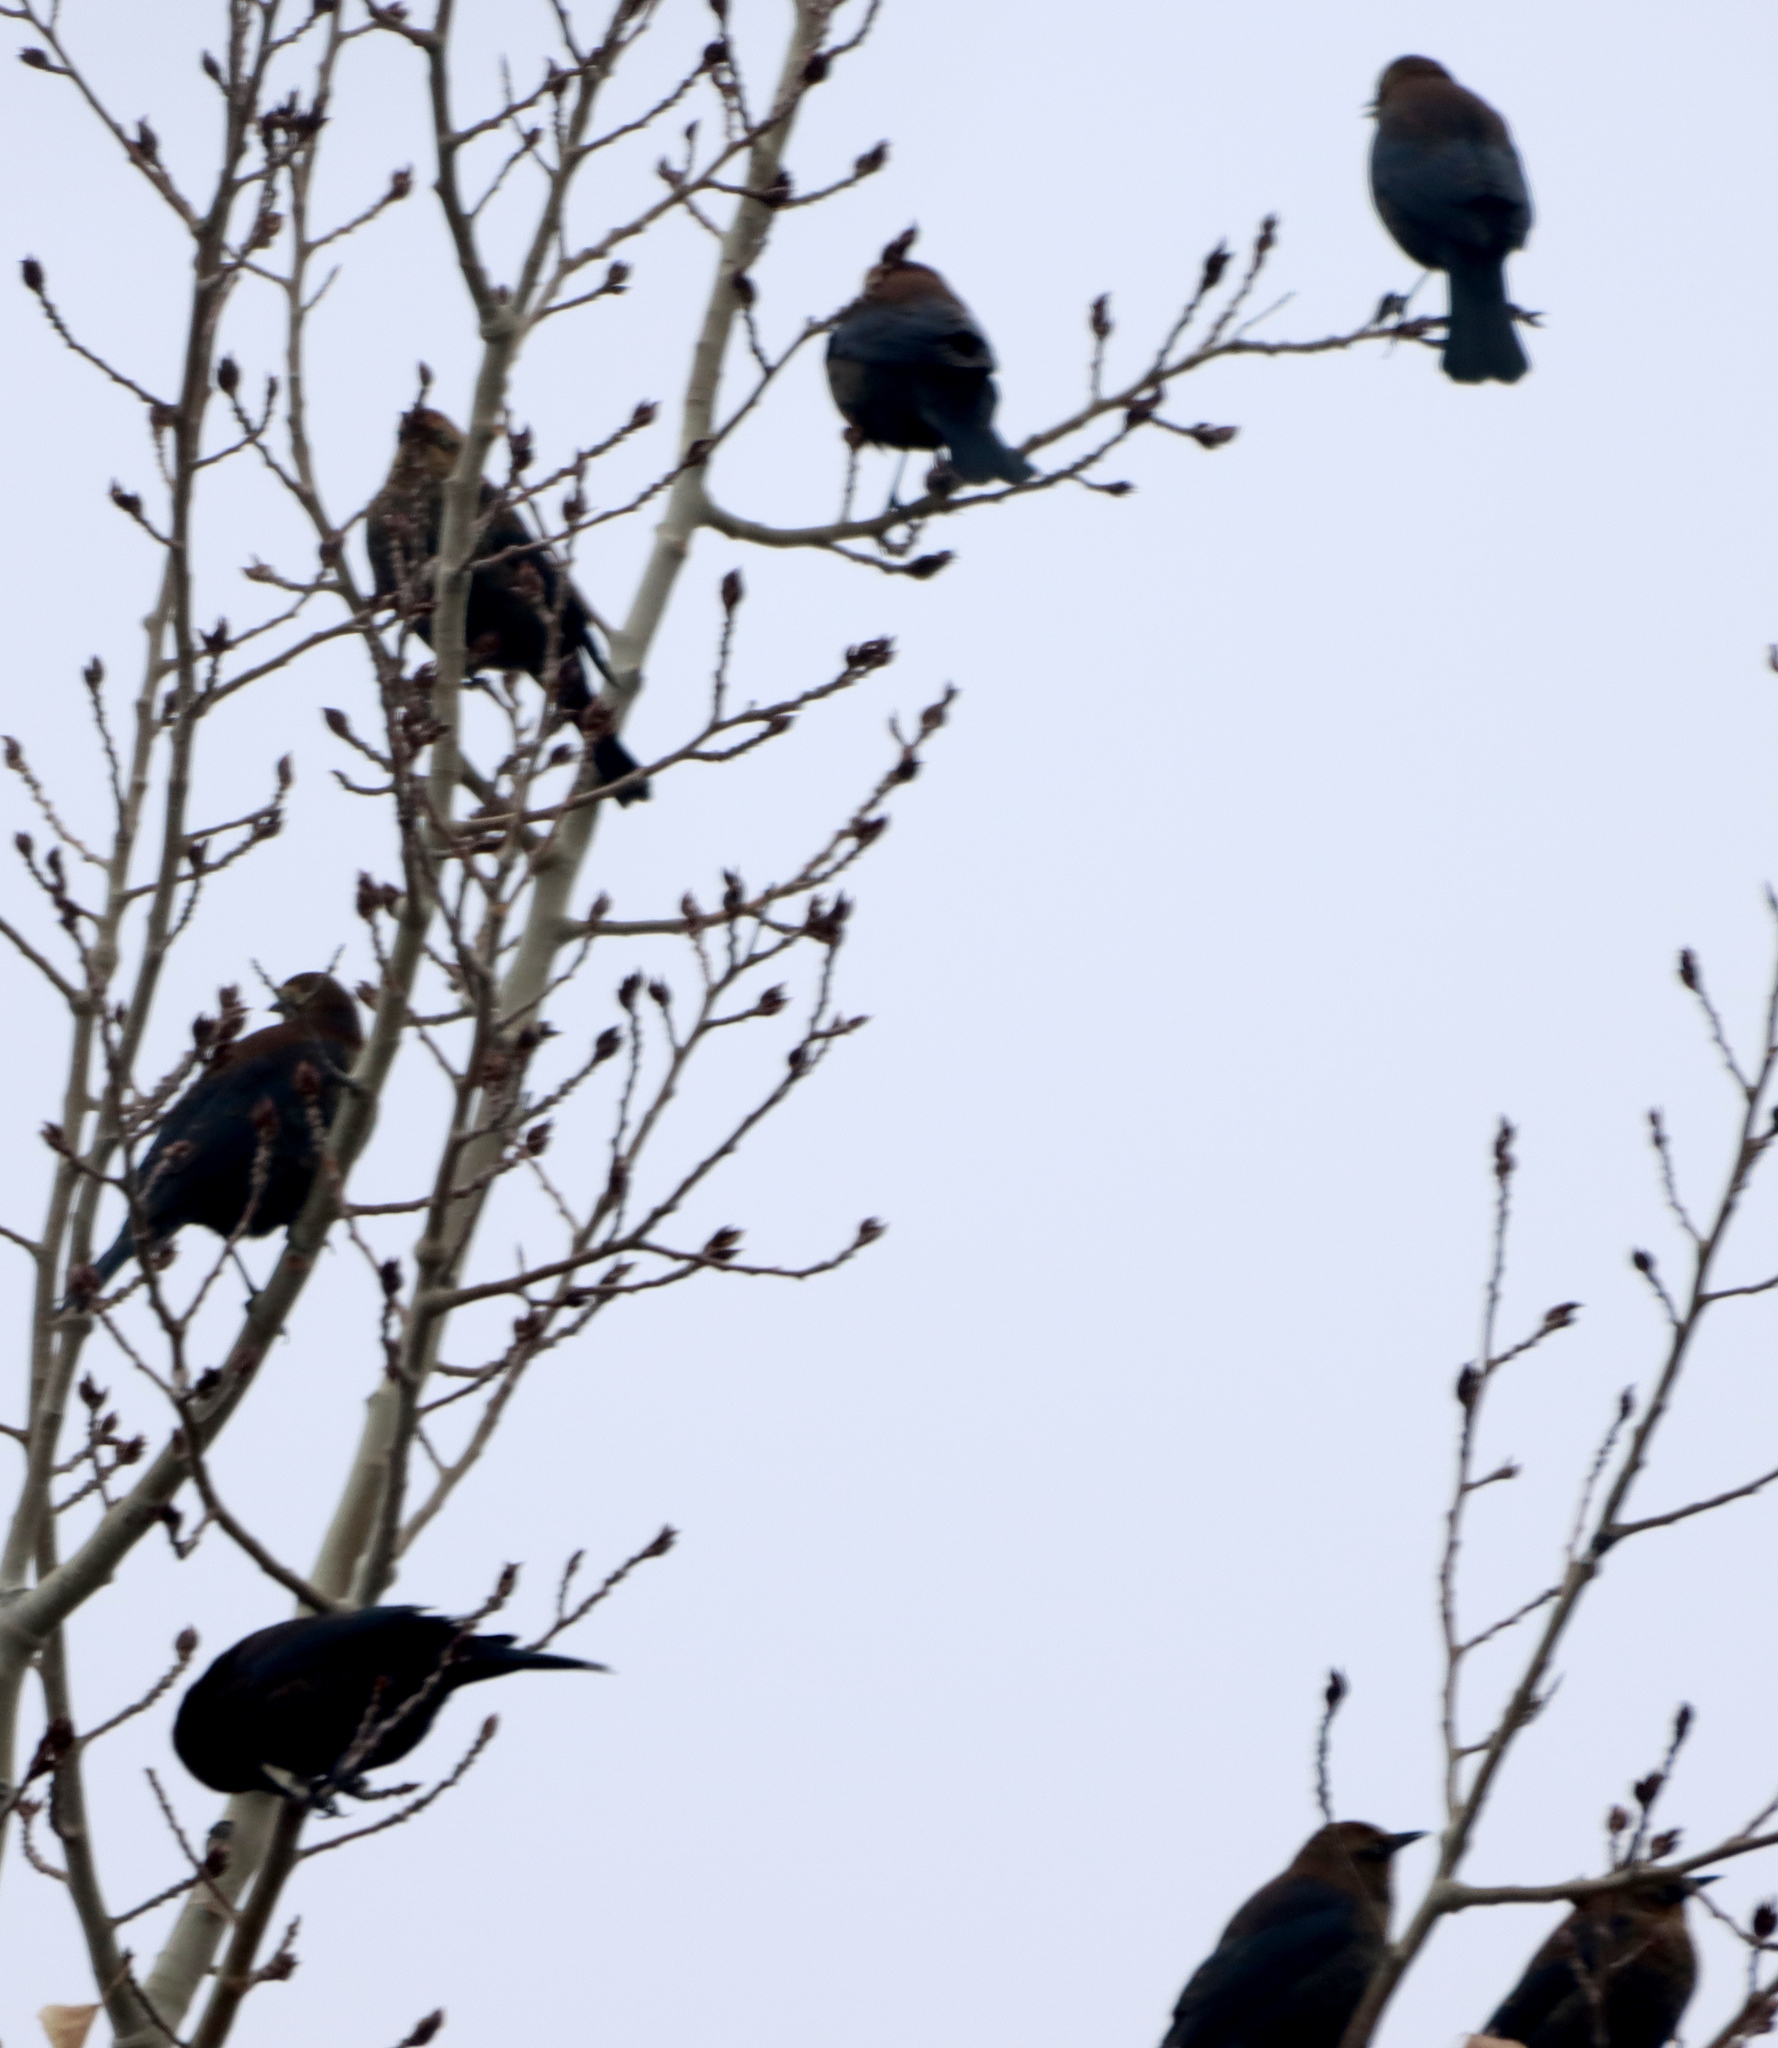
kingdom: Animalia
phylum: Chordata
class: Aves
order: Passeriformes
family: Icteridae
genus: Euphagus
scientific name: Euphagus carolinus
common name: Rusty blackbird
